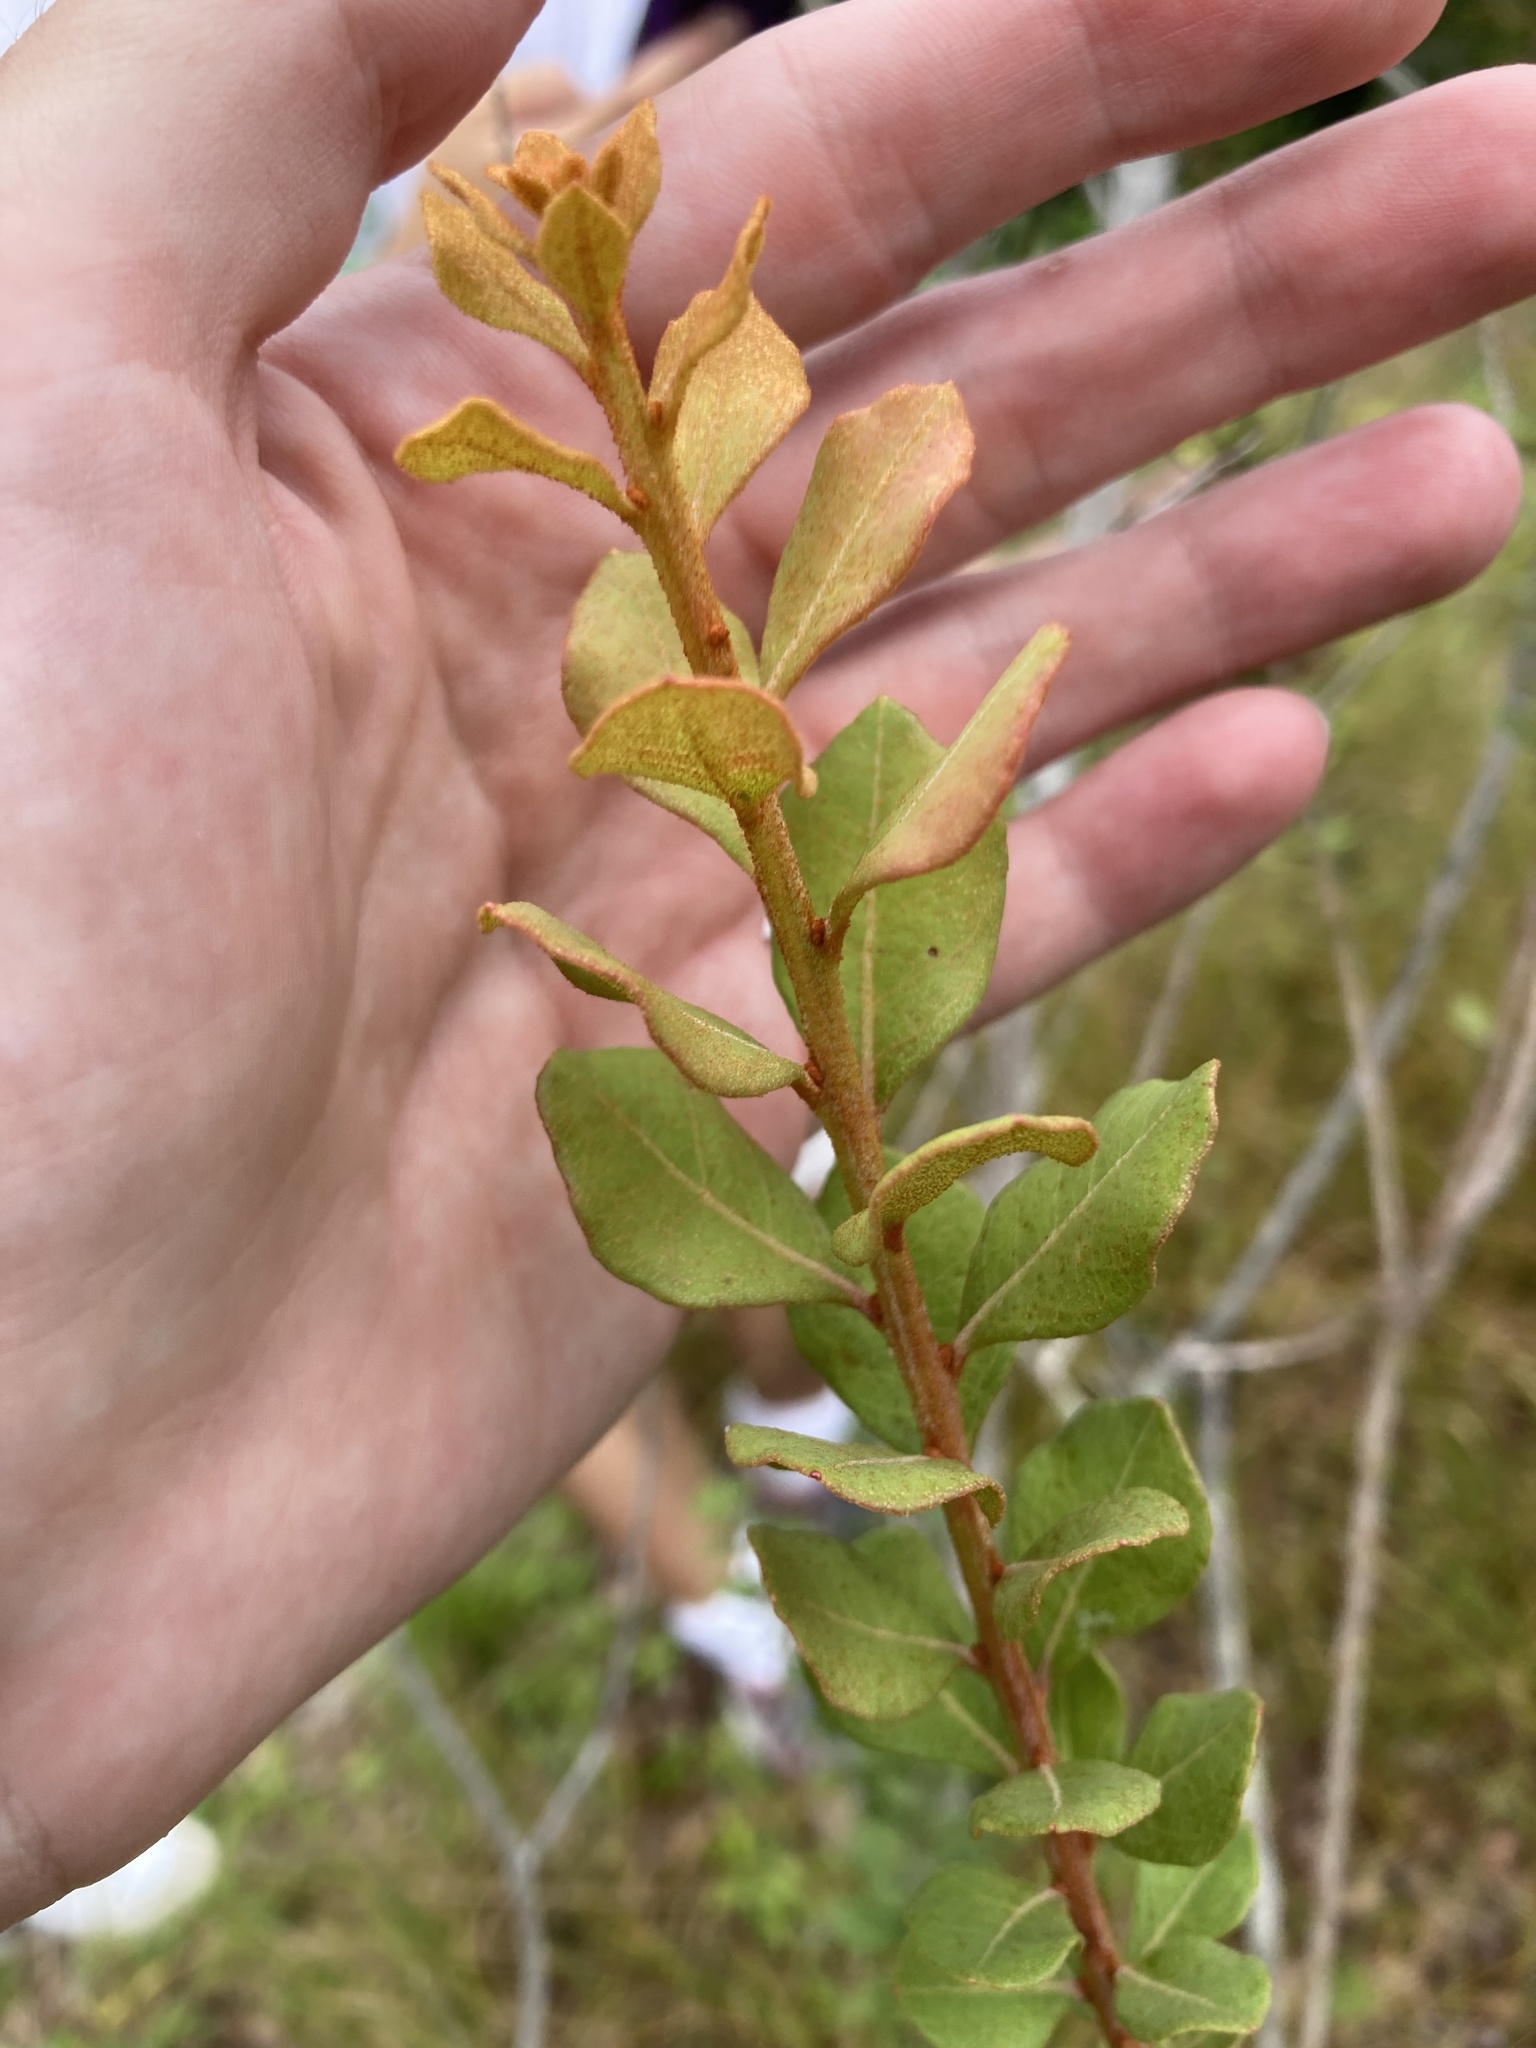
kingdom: Plantae
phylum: Tracheophyta
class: Magnoliopsida
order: Ericales
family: Ericaceae
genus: Lyonia
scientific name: Lyonia fruticosa
